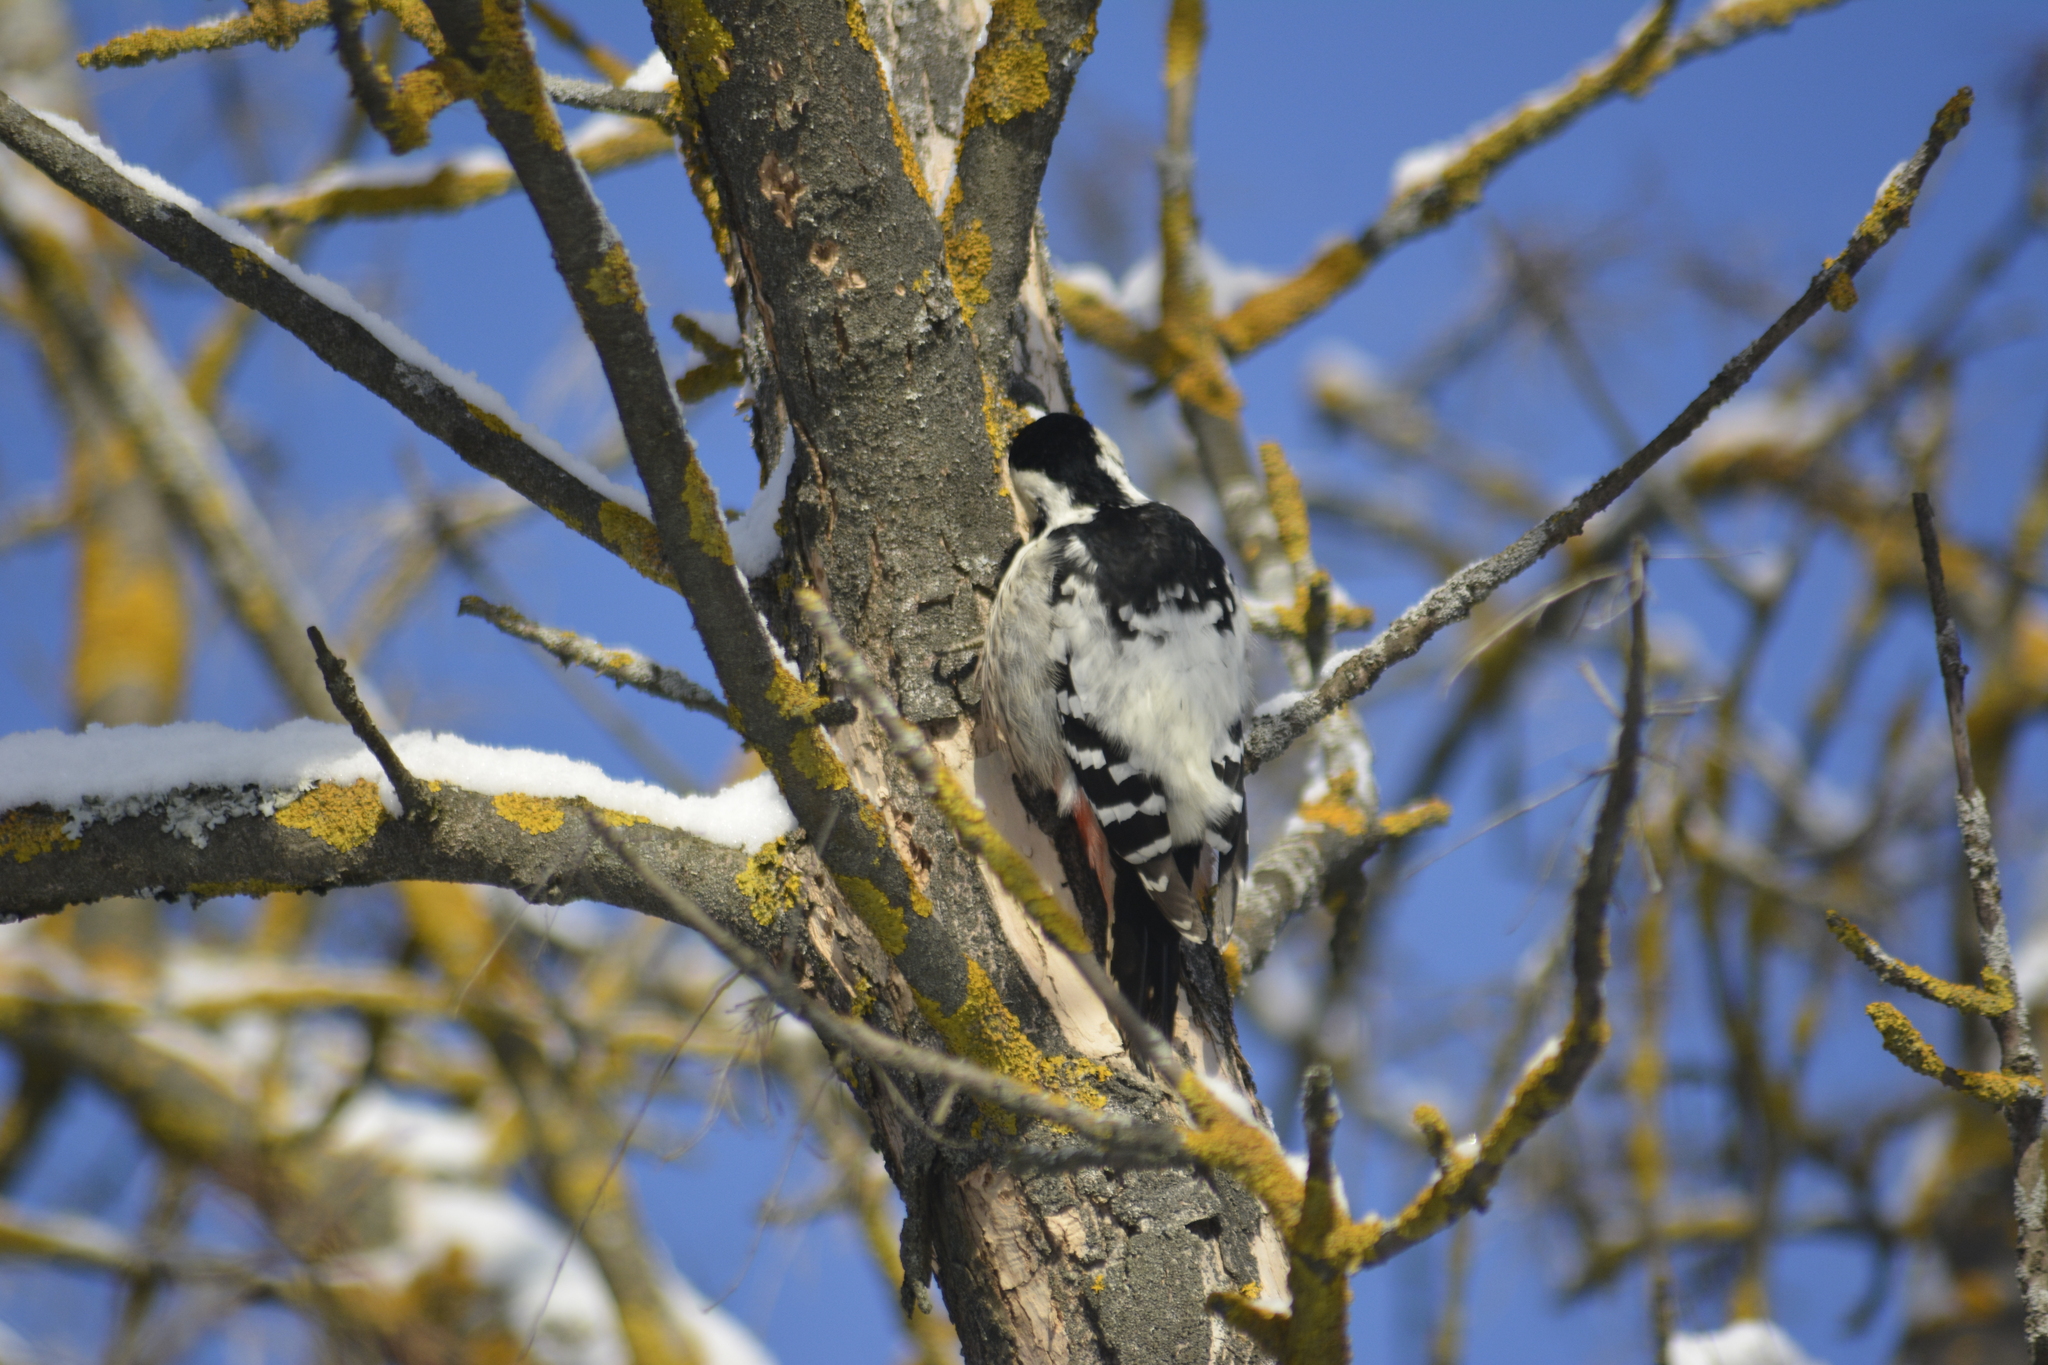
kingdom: Animalia
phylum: Chordata
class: Aves
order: Piciformes
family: Picidae
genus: Dendrocopos
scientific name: Dendrocopos leucotos
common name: White-backed woodpecker
